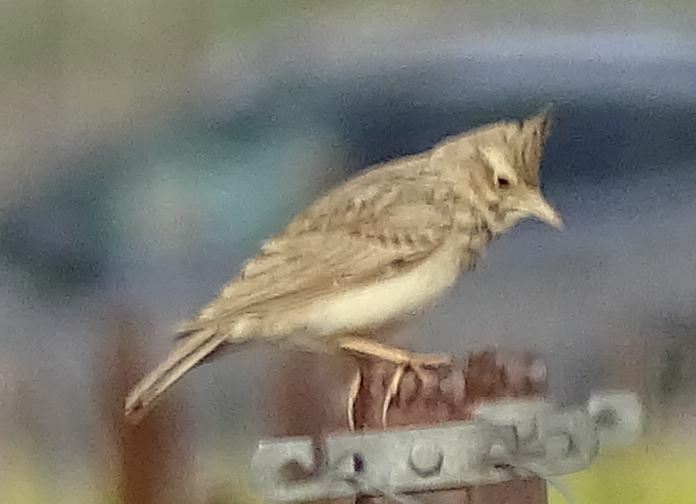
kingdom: Animalia
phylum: Chordata
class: Aves
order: Passeriformes
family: Alaudidae
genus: Galerida
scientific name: Galerida cristata
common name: Crested lark
